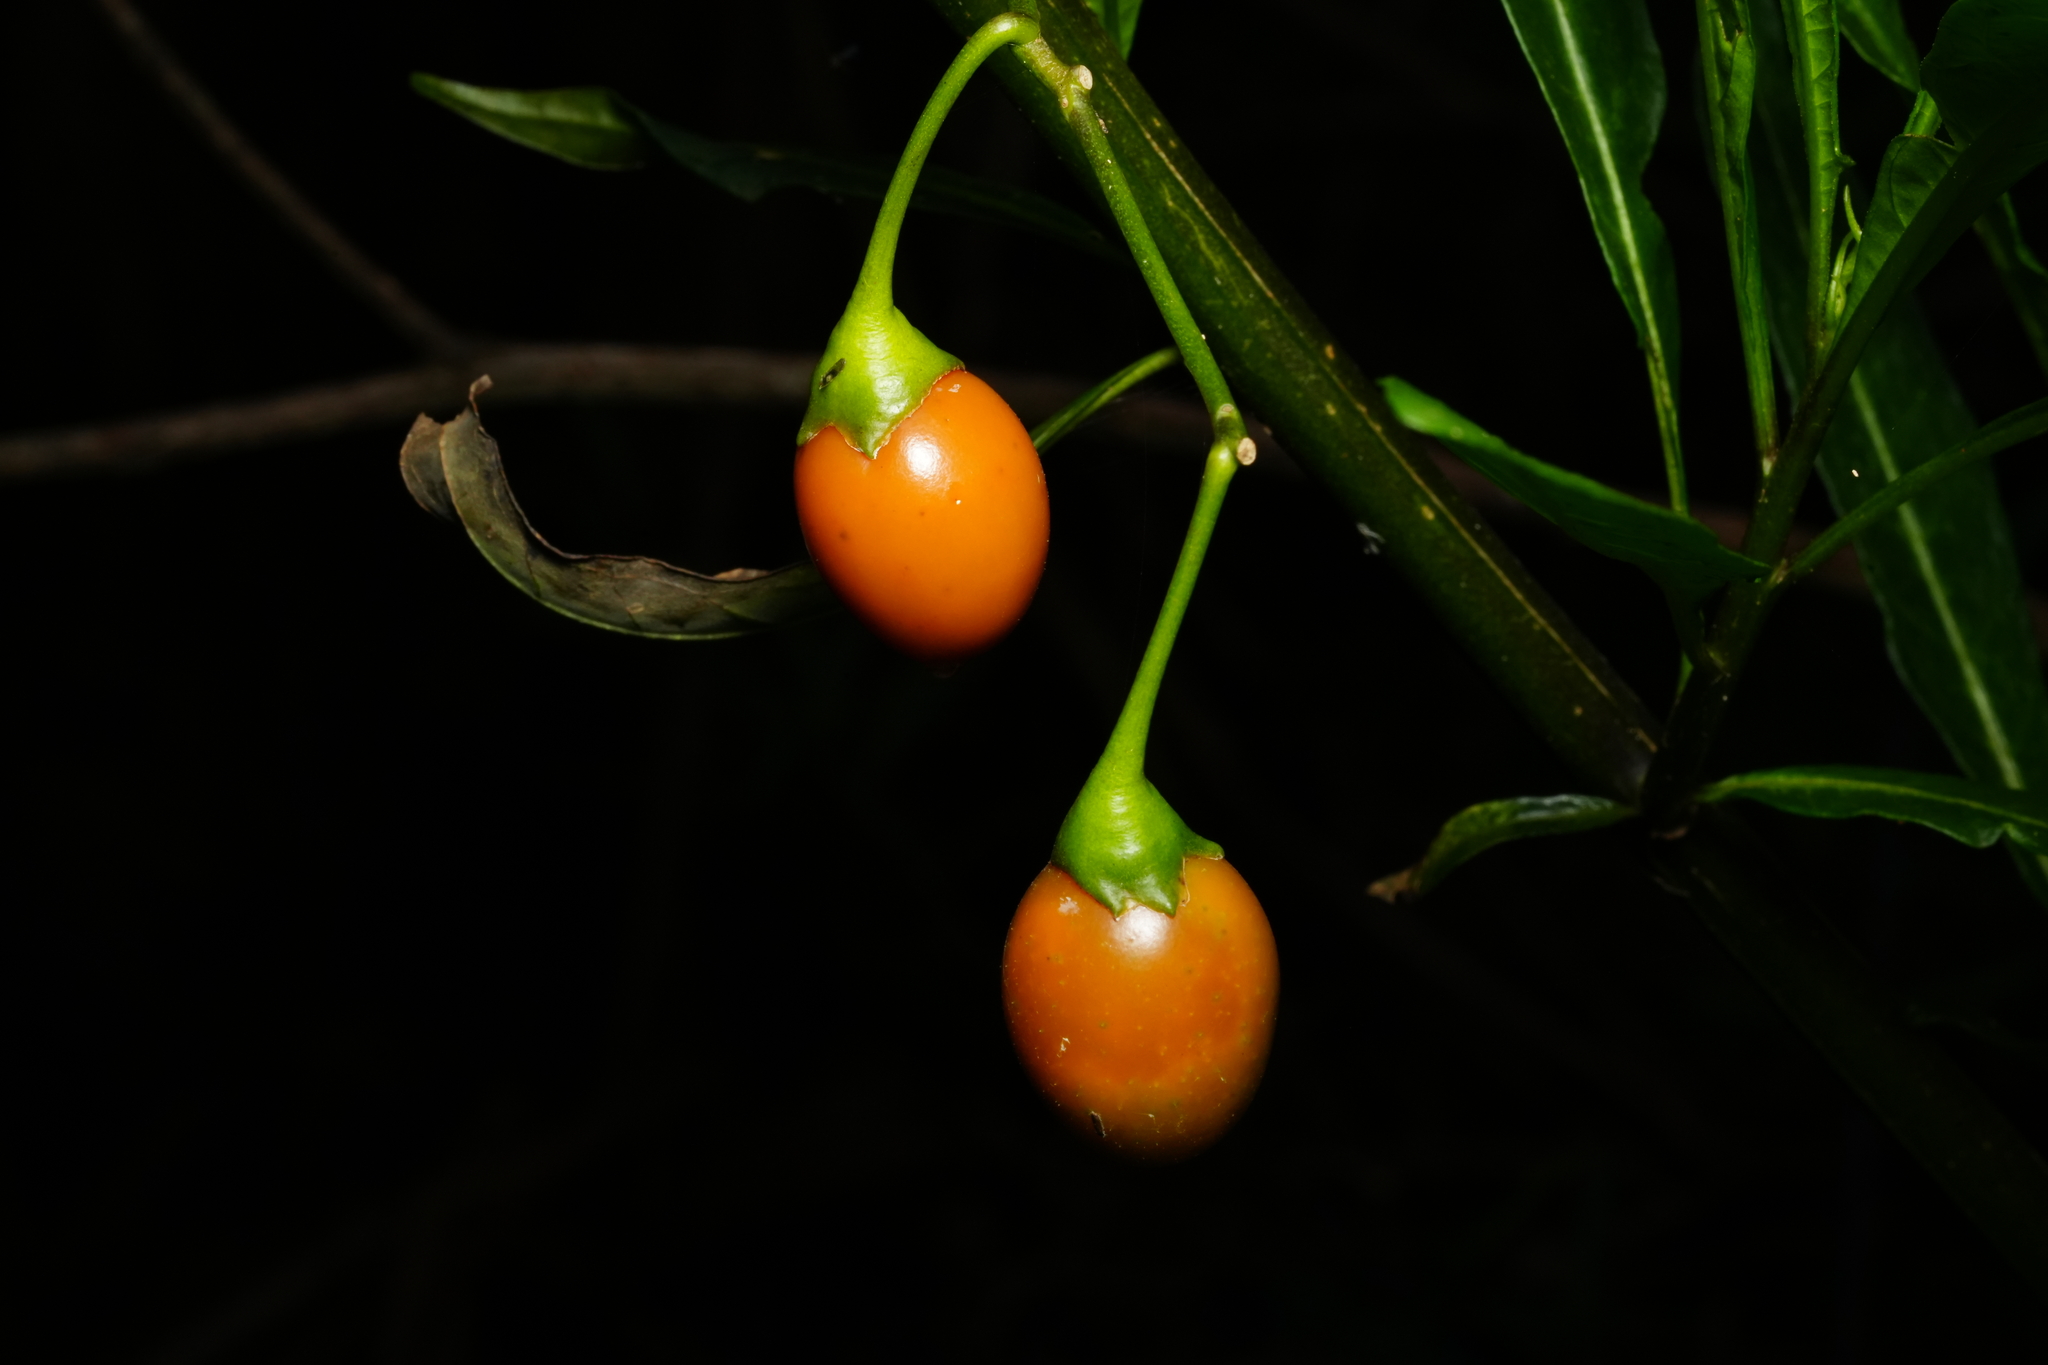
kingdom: Plantae
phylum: Tracheophyta
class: Magnoliopsida
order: Solanales
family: Solanaceae
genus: Solanum
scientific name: Solanum laciniatum
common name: Kangaroo-apple
